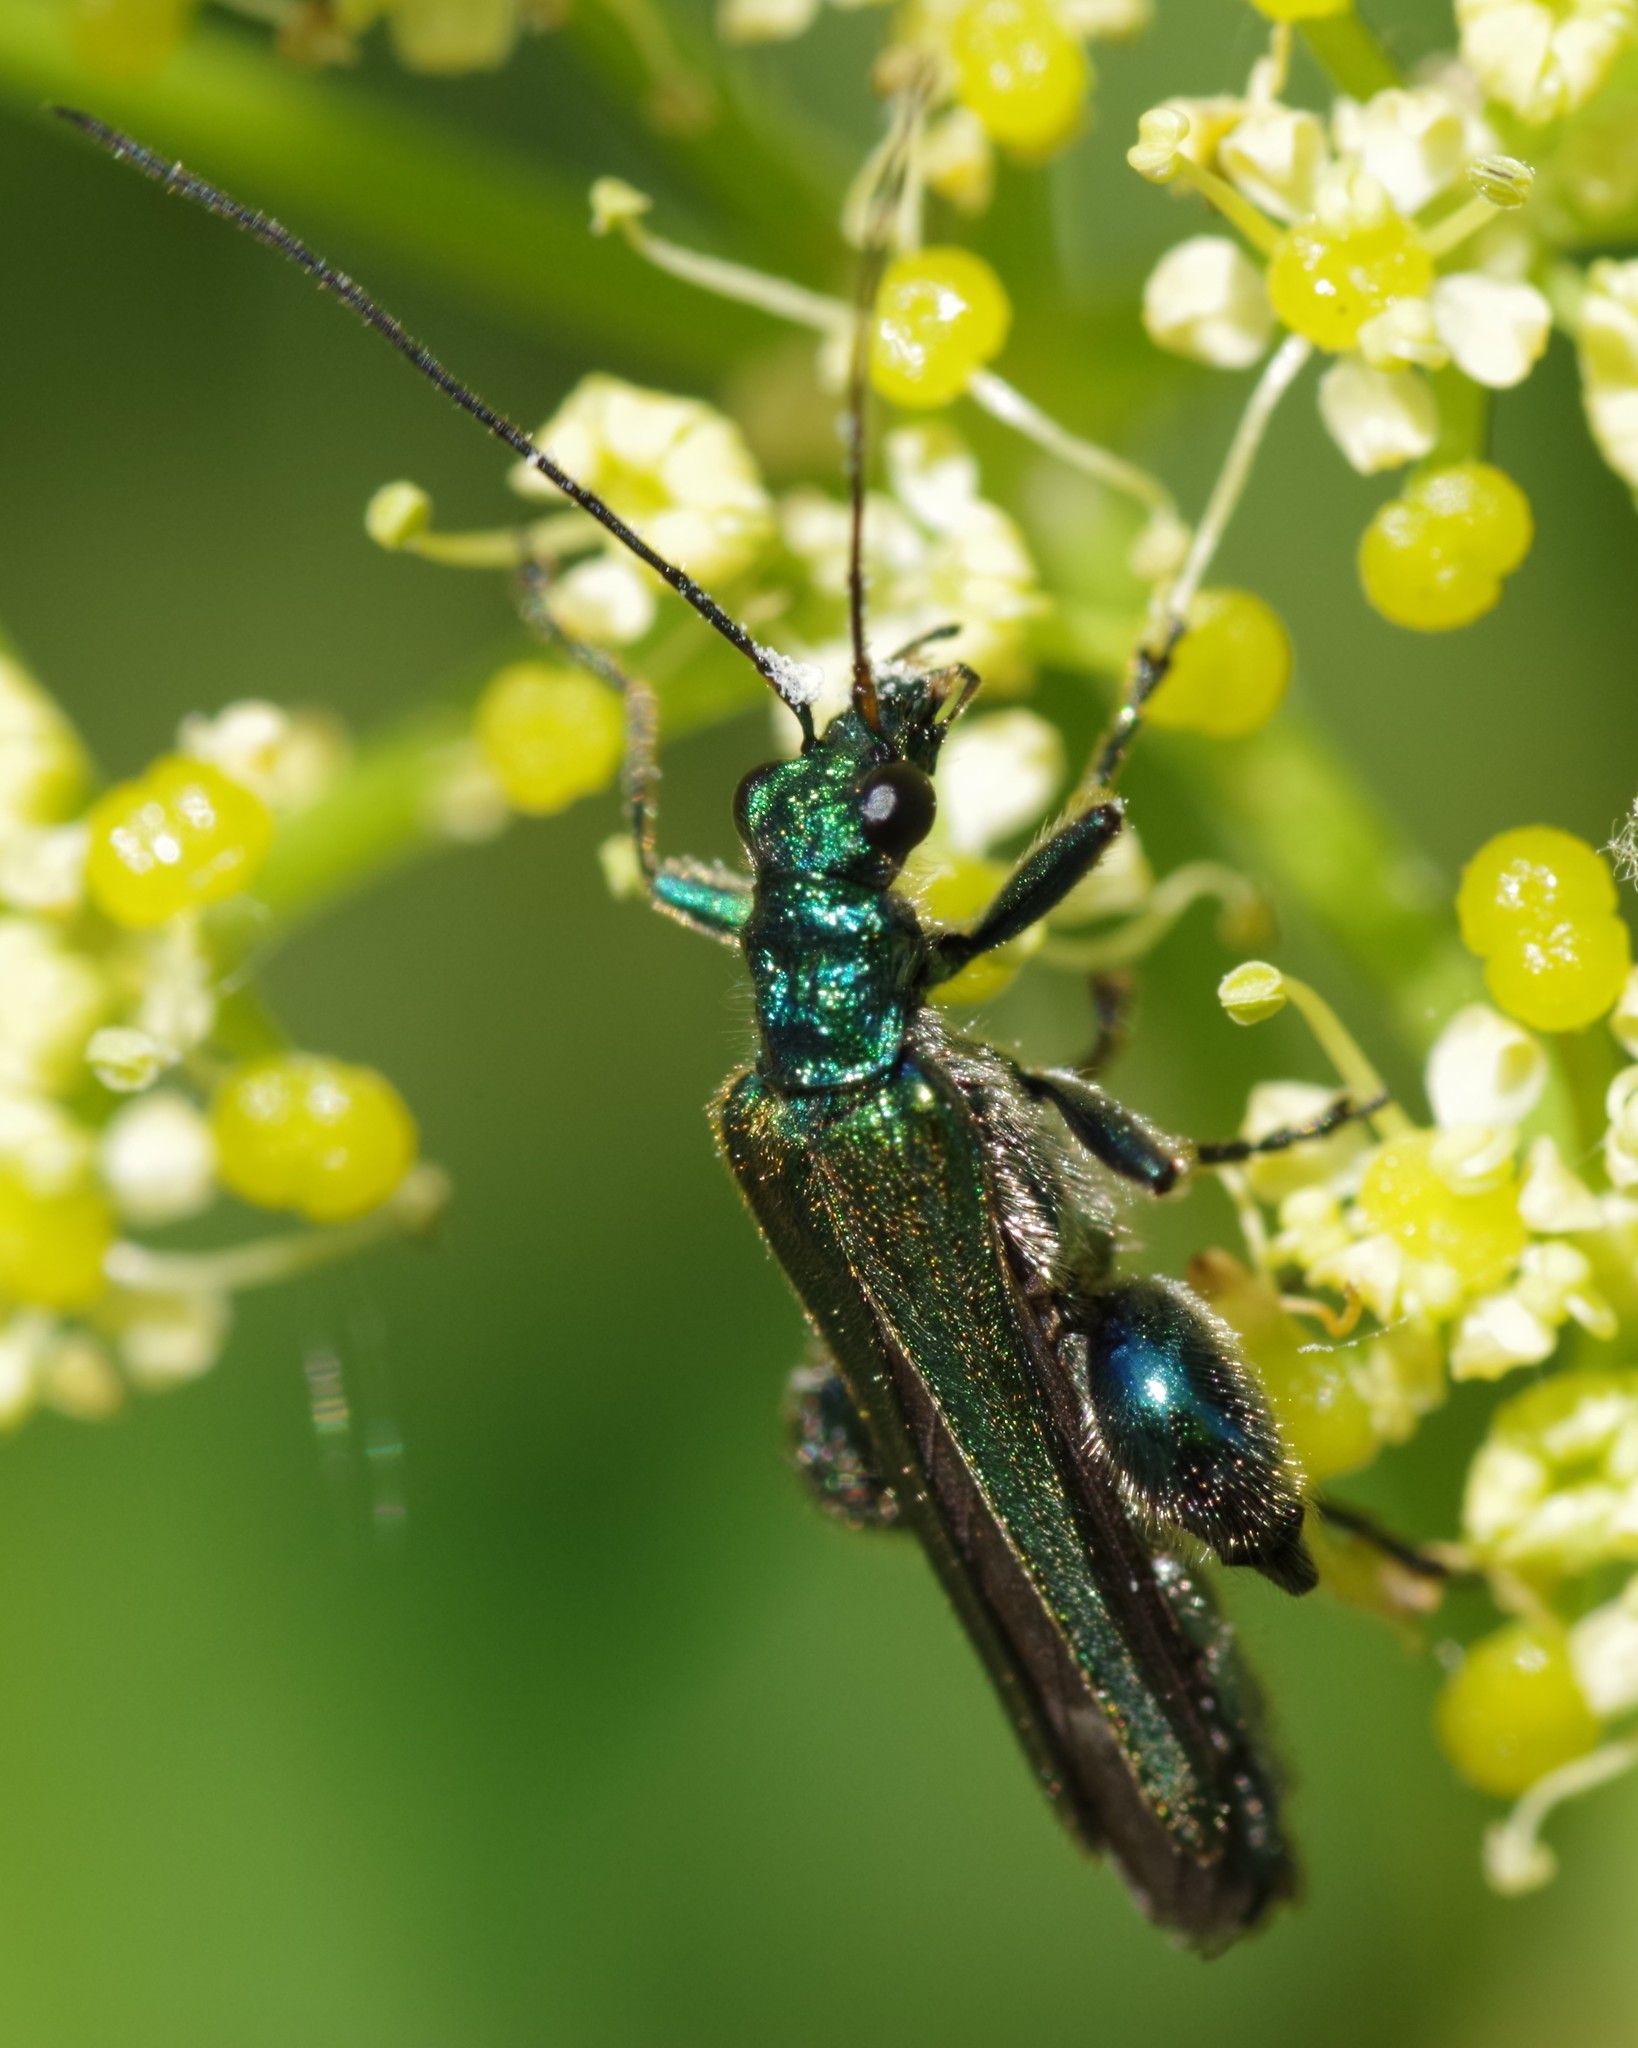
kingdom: Animalia
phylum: Arthropoda
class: Insecta
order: Coleoptera
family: Oedemeridae
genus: Oedemera
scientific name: Oedemera nobilis
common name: Swollen-thighed beetle
